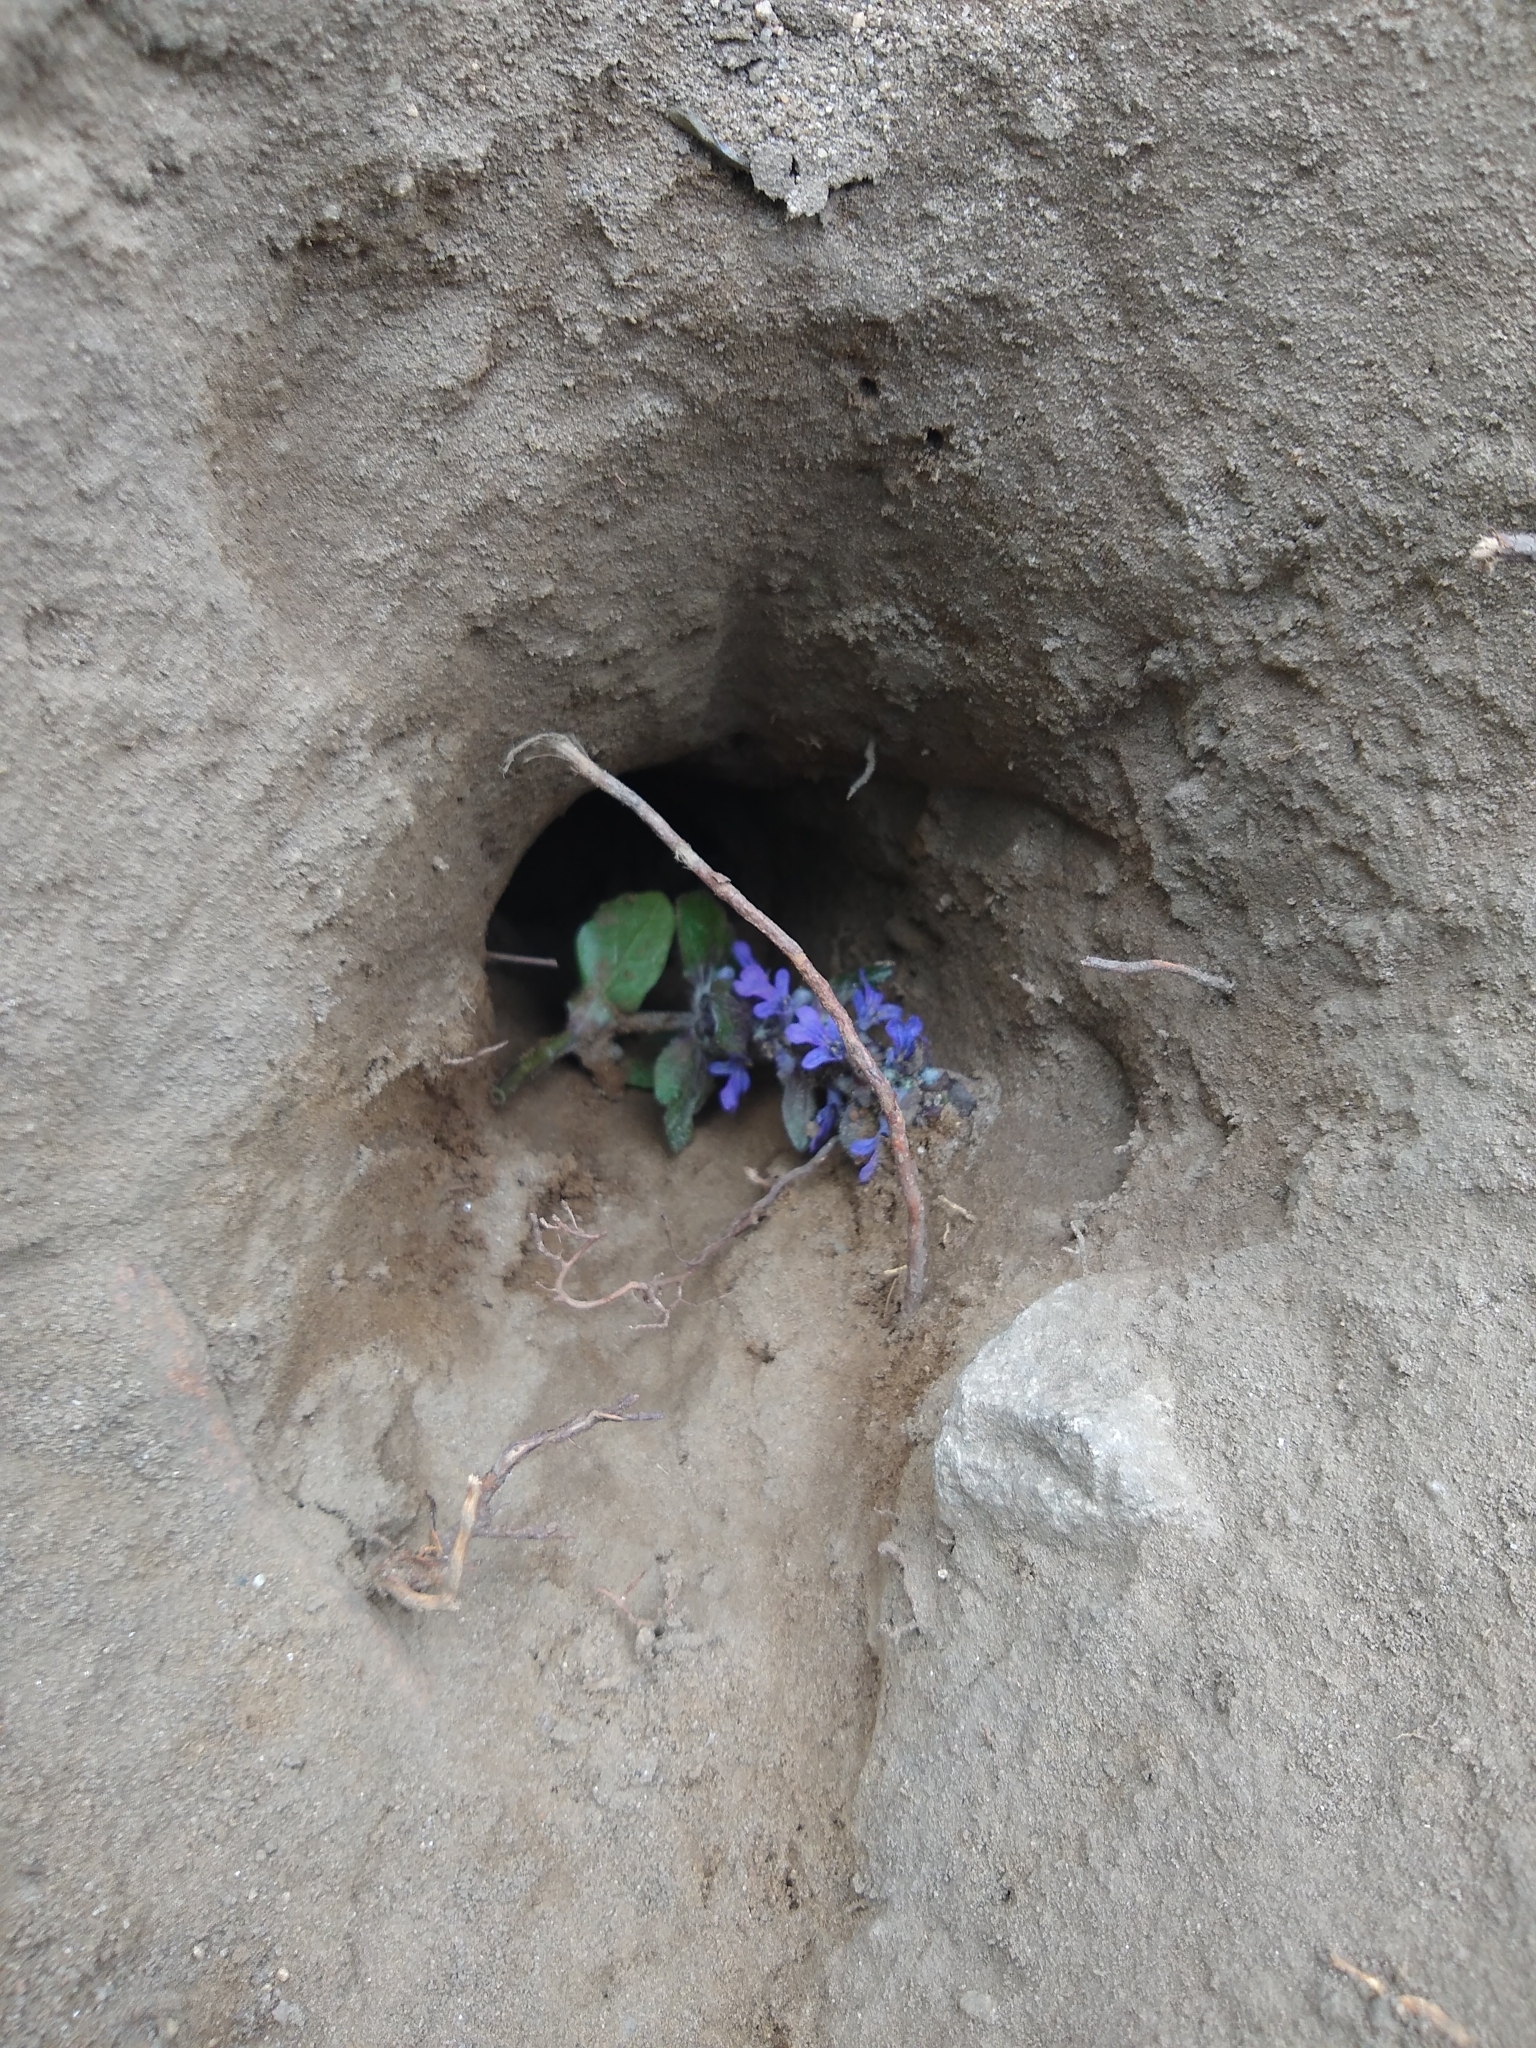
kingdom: Plantae
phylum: Tracheophyta
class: Magnoliopsida
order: Lamiales
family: Lamiaceae
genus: Ajuga
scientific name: Ajuga reptans
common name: Bugle
